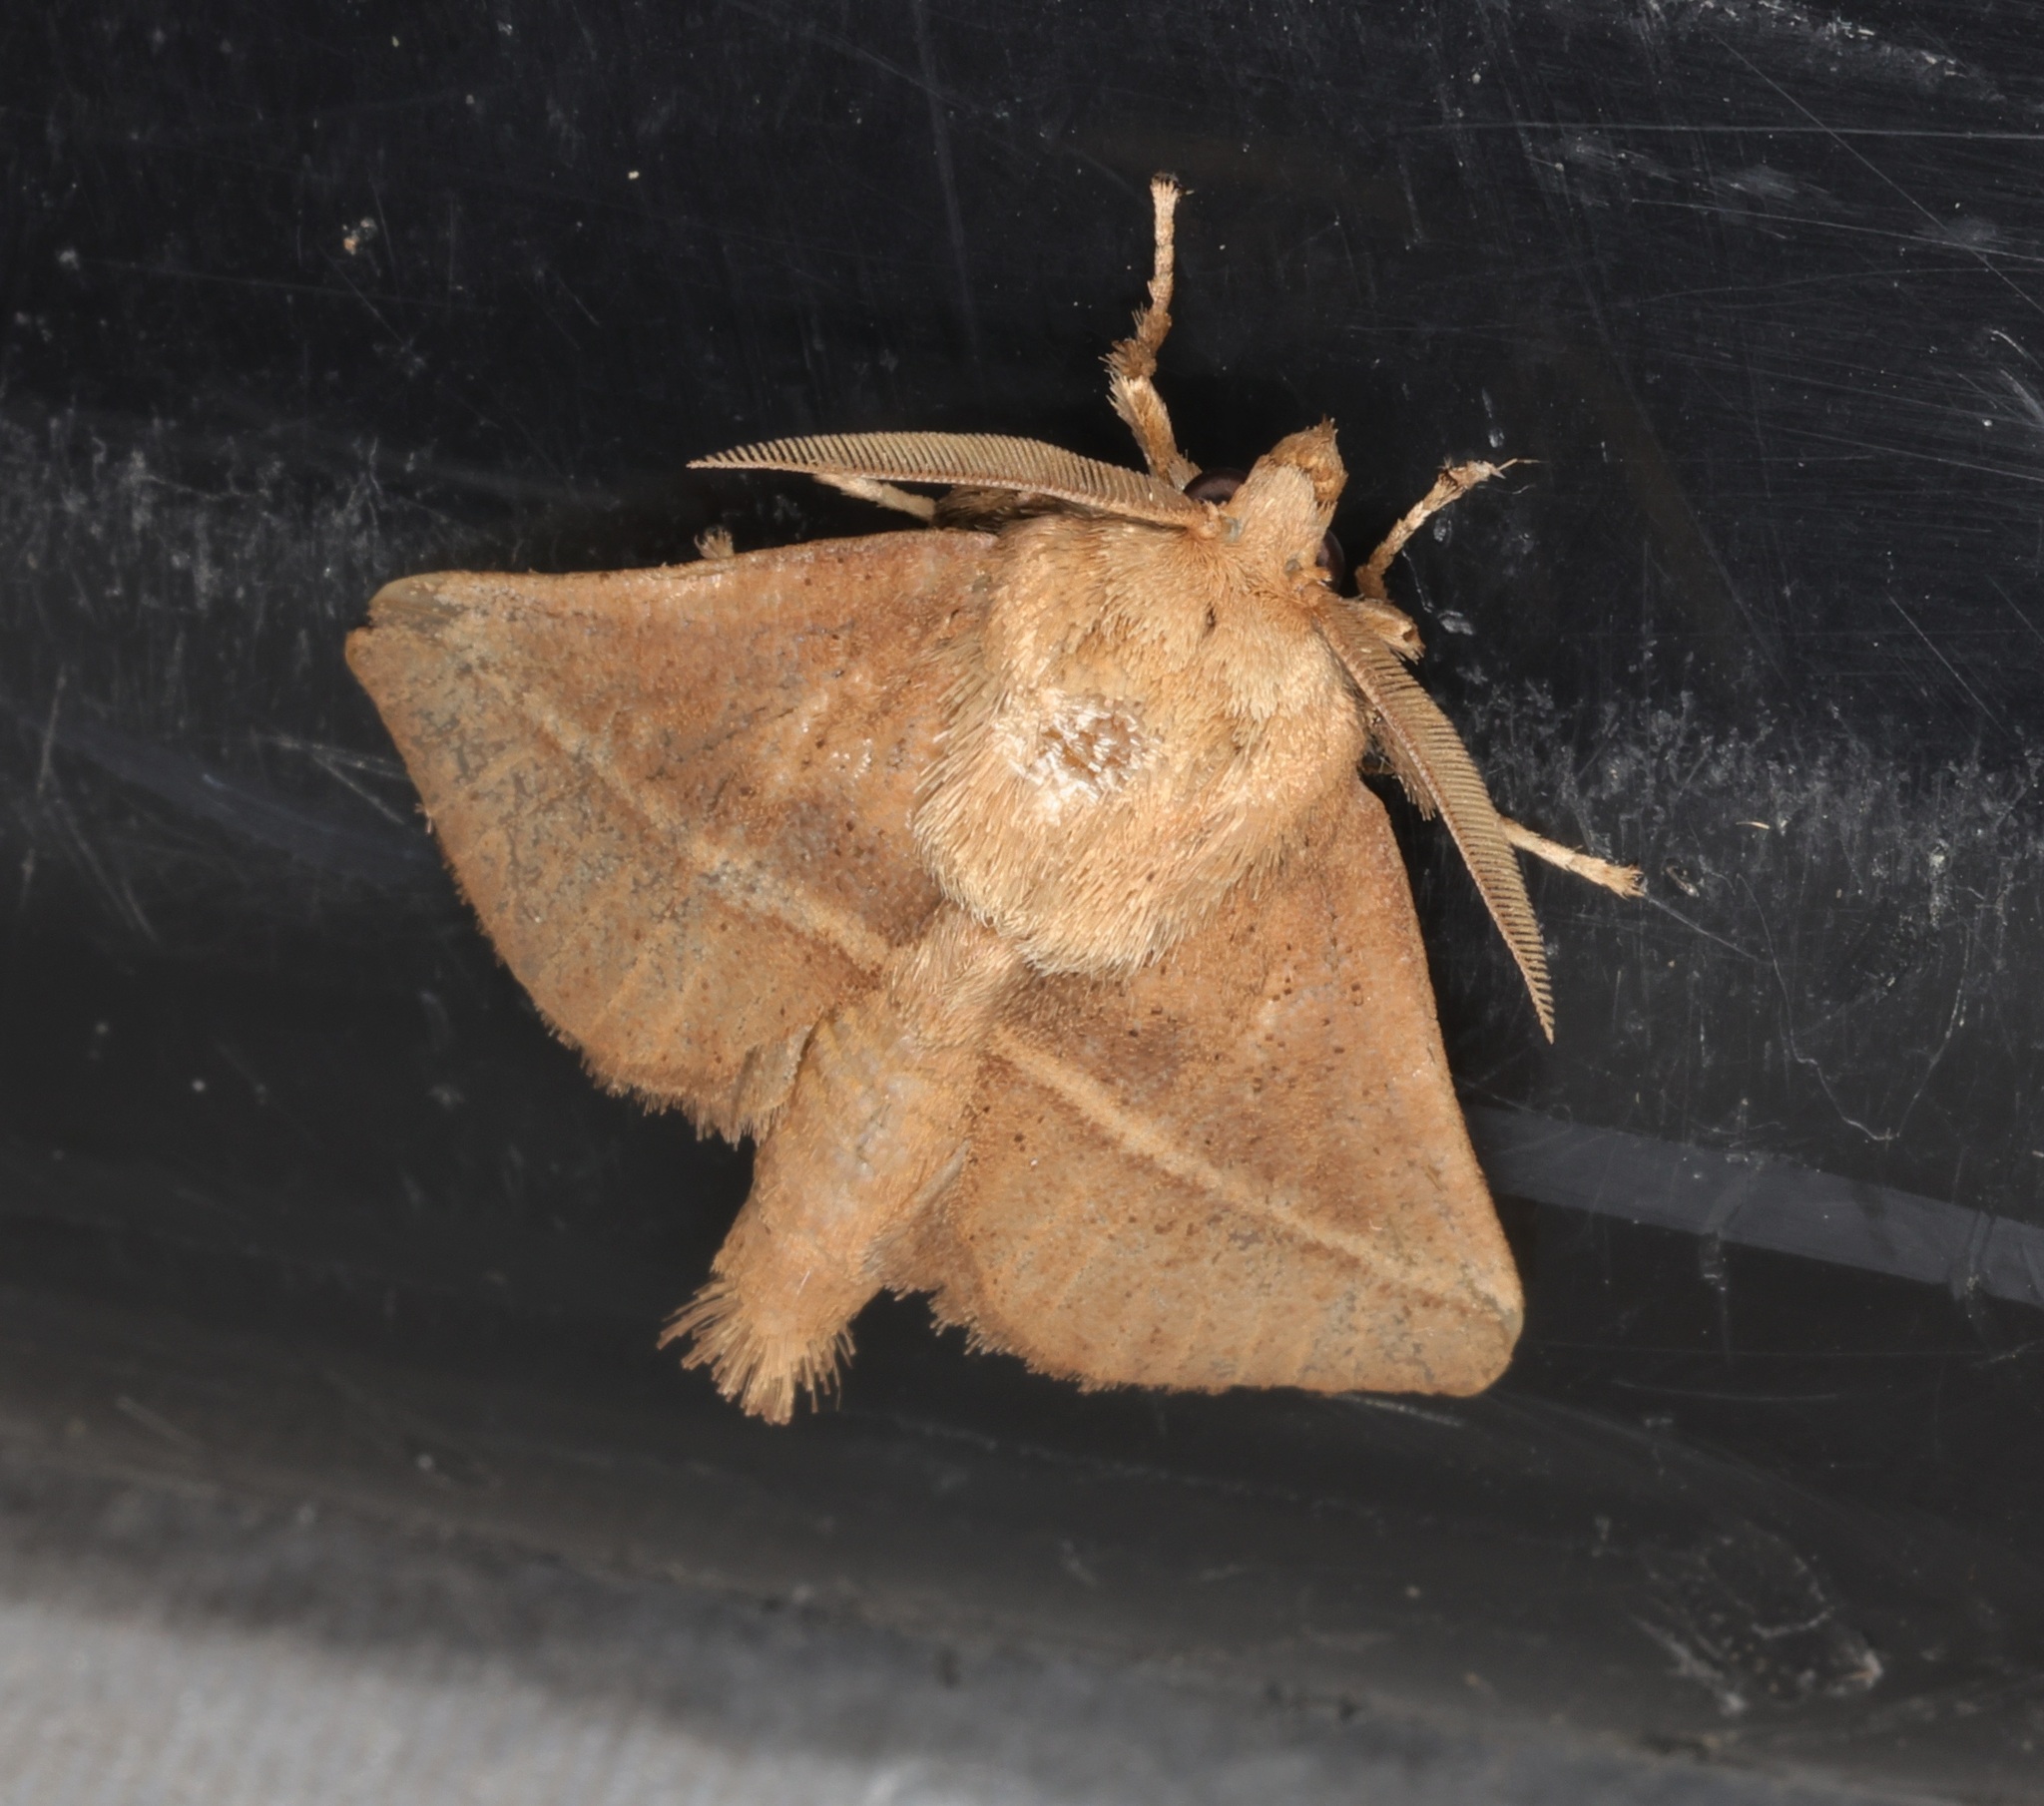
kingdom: Animalia
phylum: Arthropoda
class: Insecta
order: Lepidoptera
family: Limacodidae
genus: Quasithosea
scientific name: Quasithosea obliquistriga
